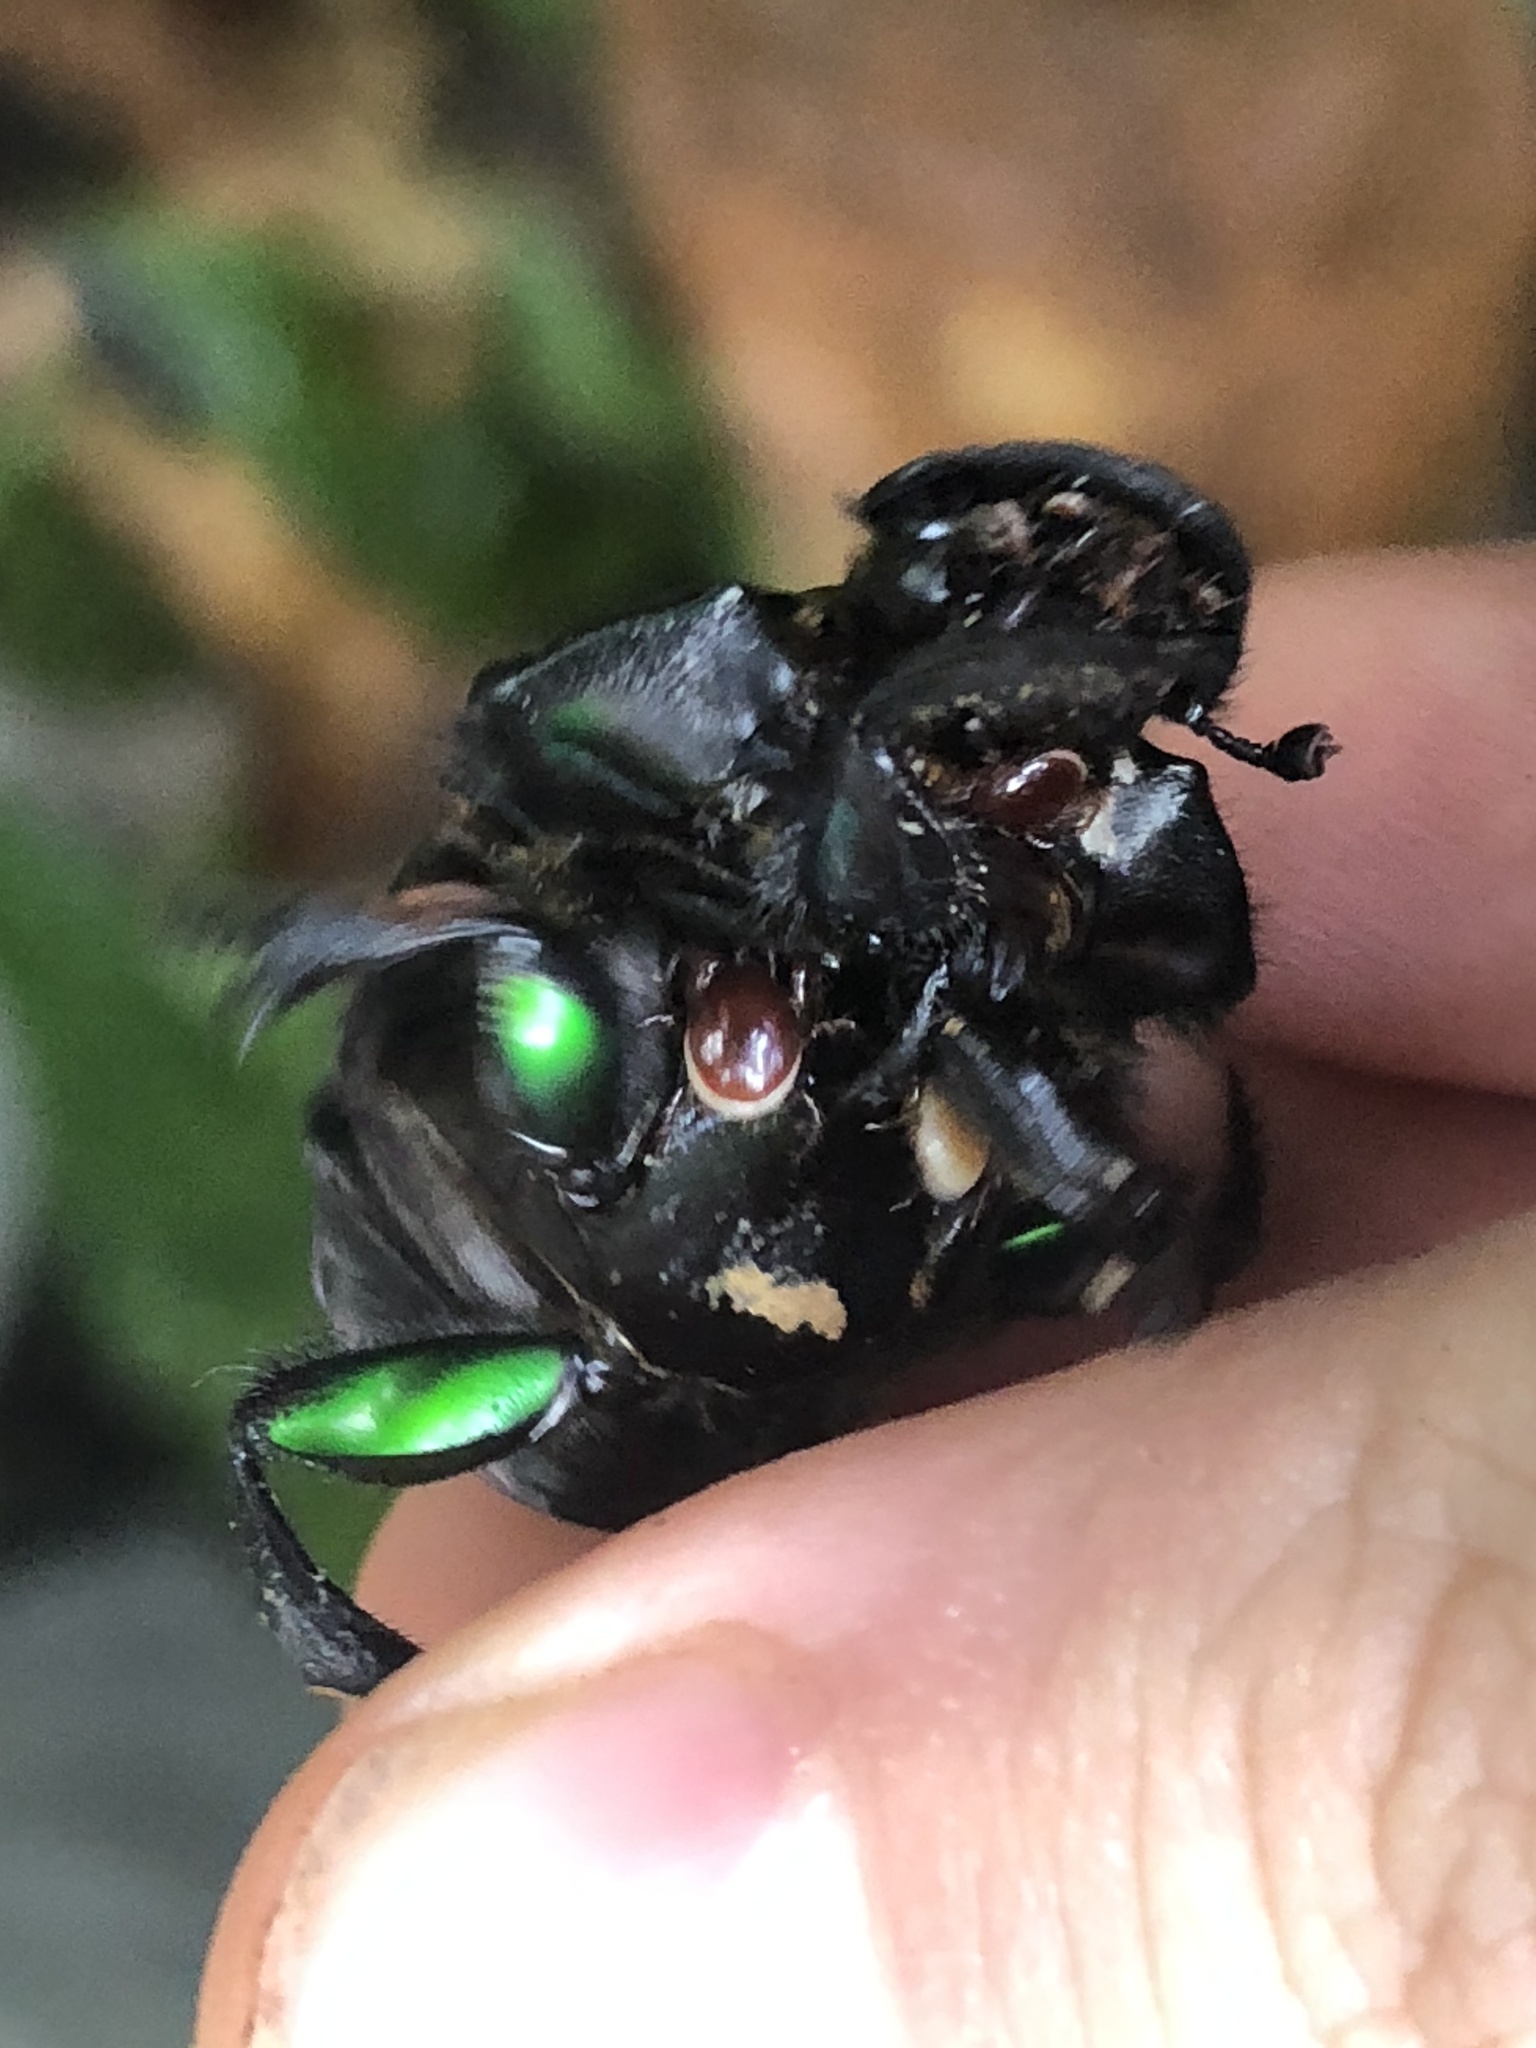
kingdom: Animalia
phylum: Arthropoda
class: Insecta
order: Coleoptera
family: Scarabaeidae
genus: Oxysternon
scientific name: Oxysternon conspicillatum
